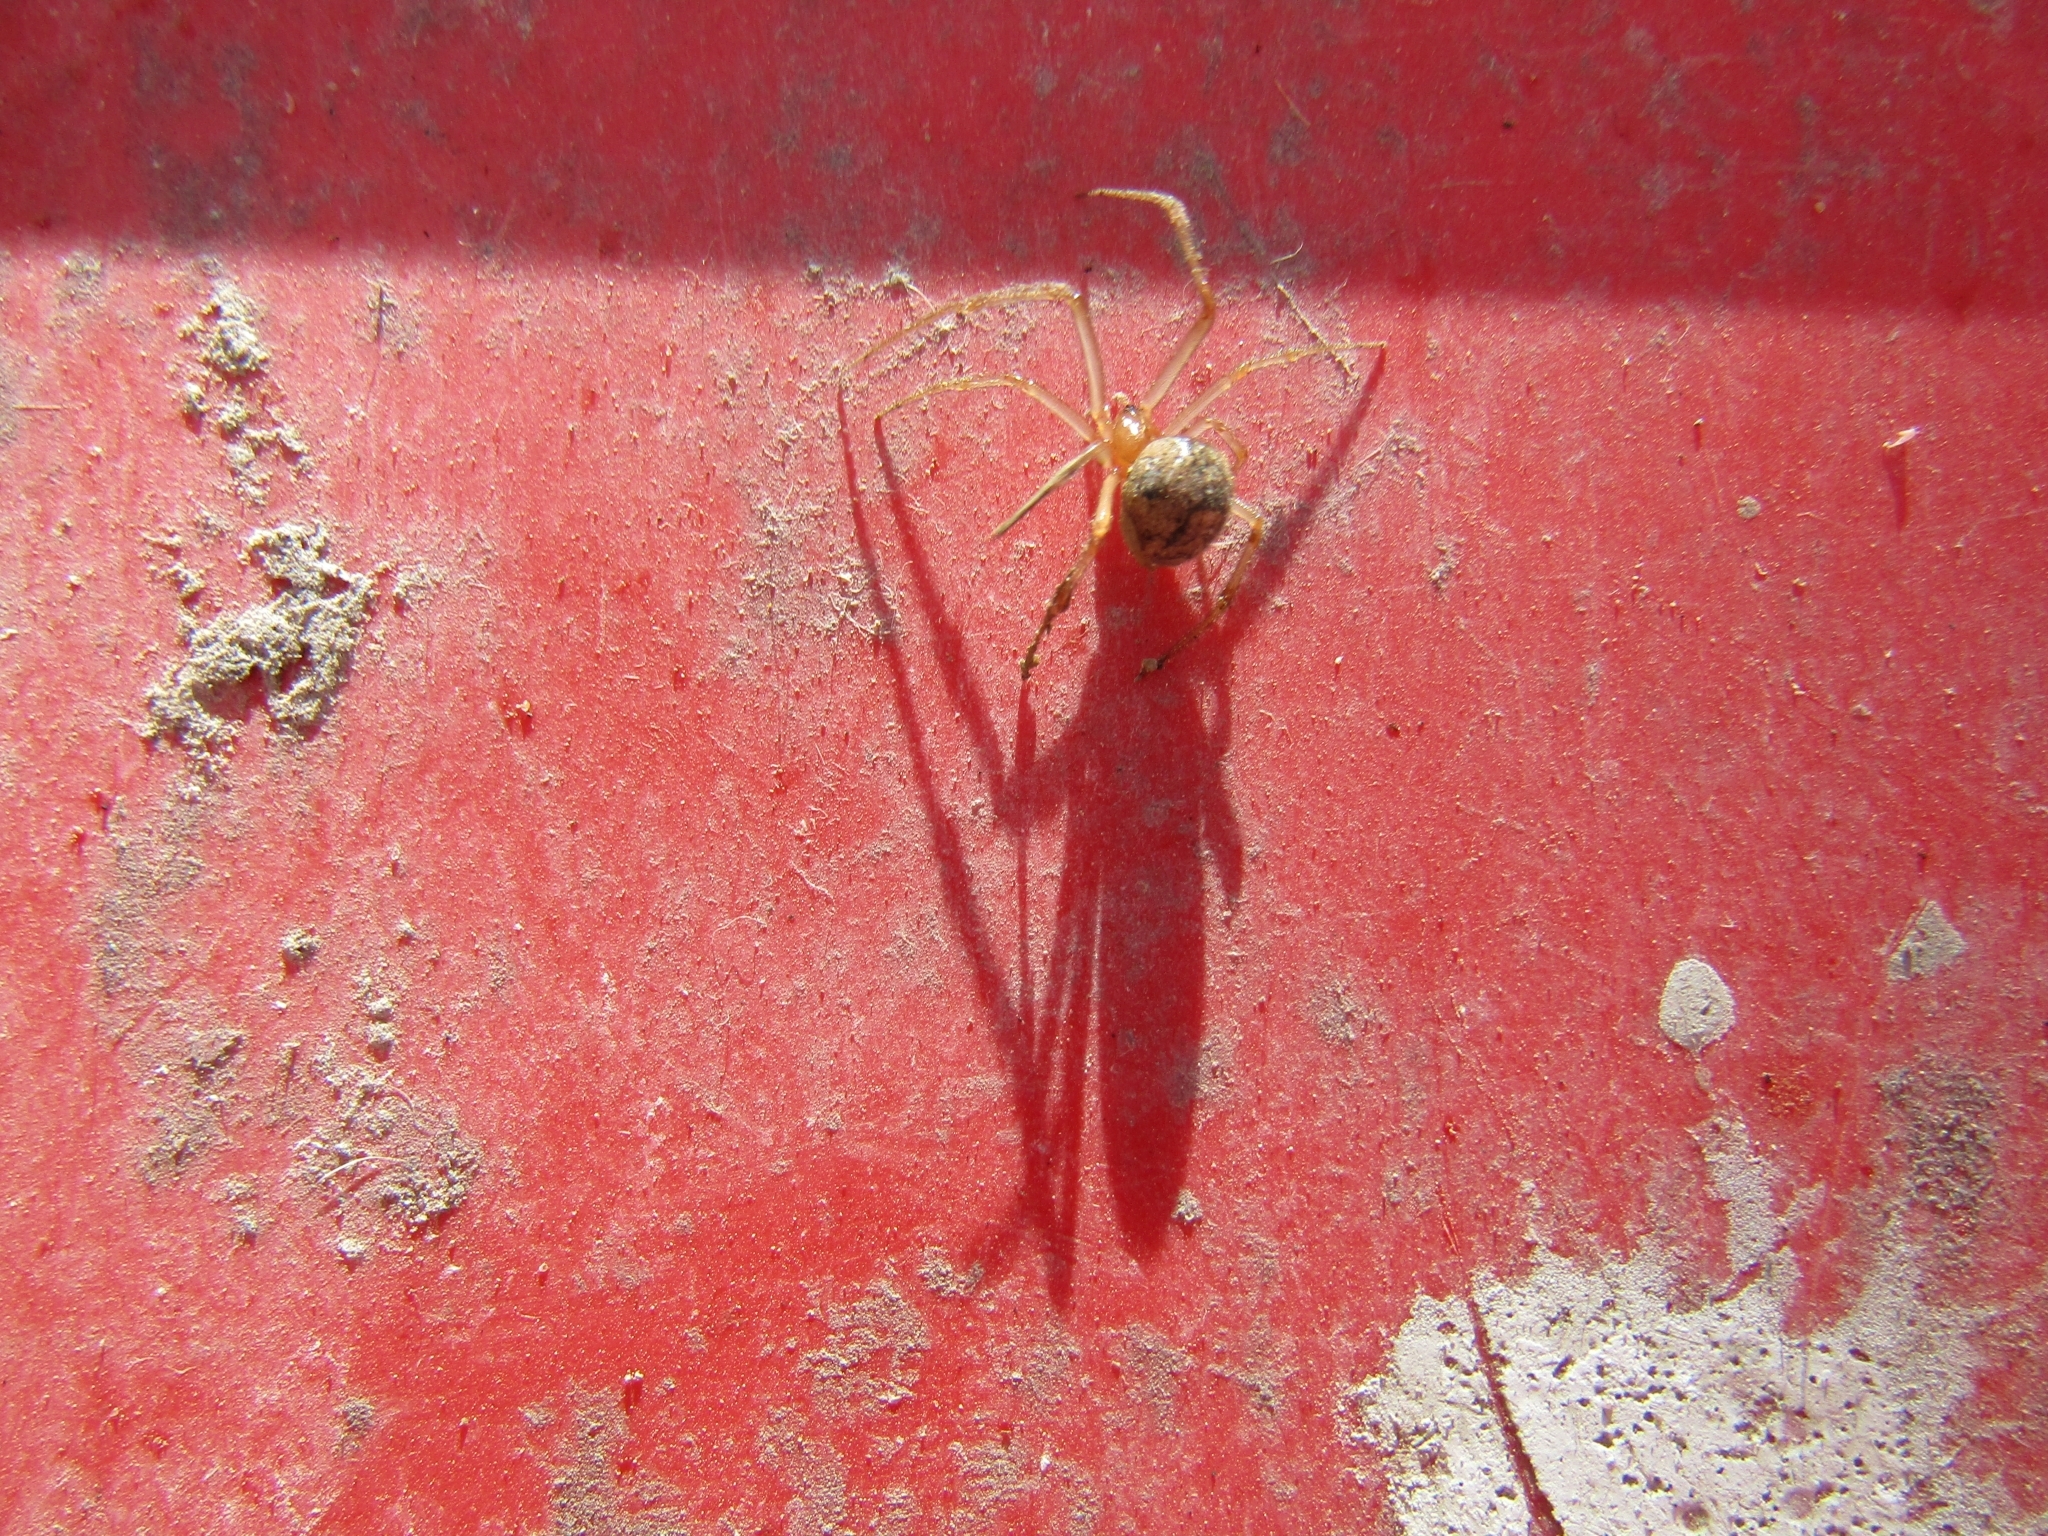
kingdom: Animalia
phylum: Arthropoda
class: Arachnida
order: Araneae
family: Theridiidae
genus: Parasteatoda
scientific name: Parasteatoda tepidariorum
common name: Common house spider
